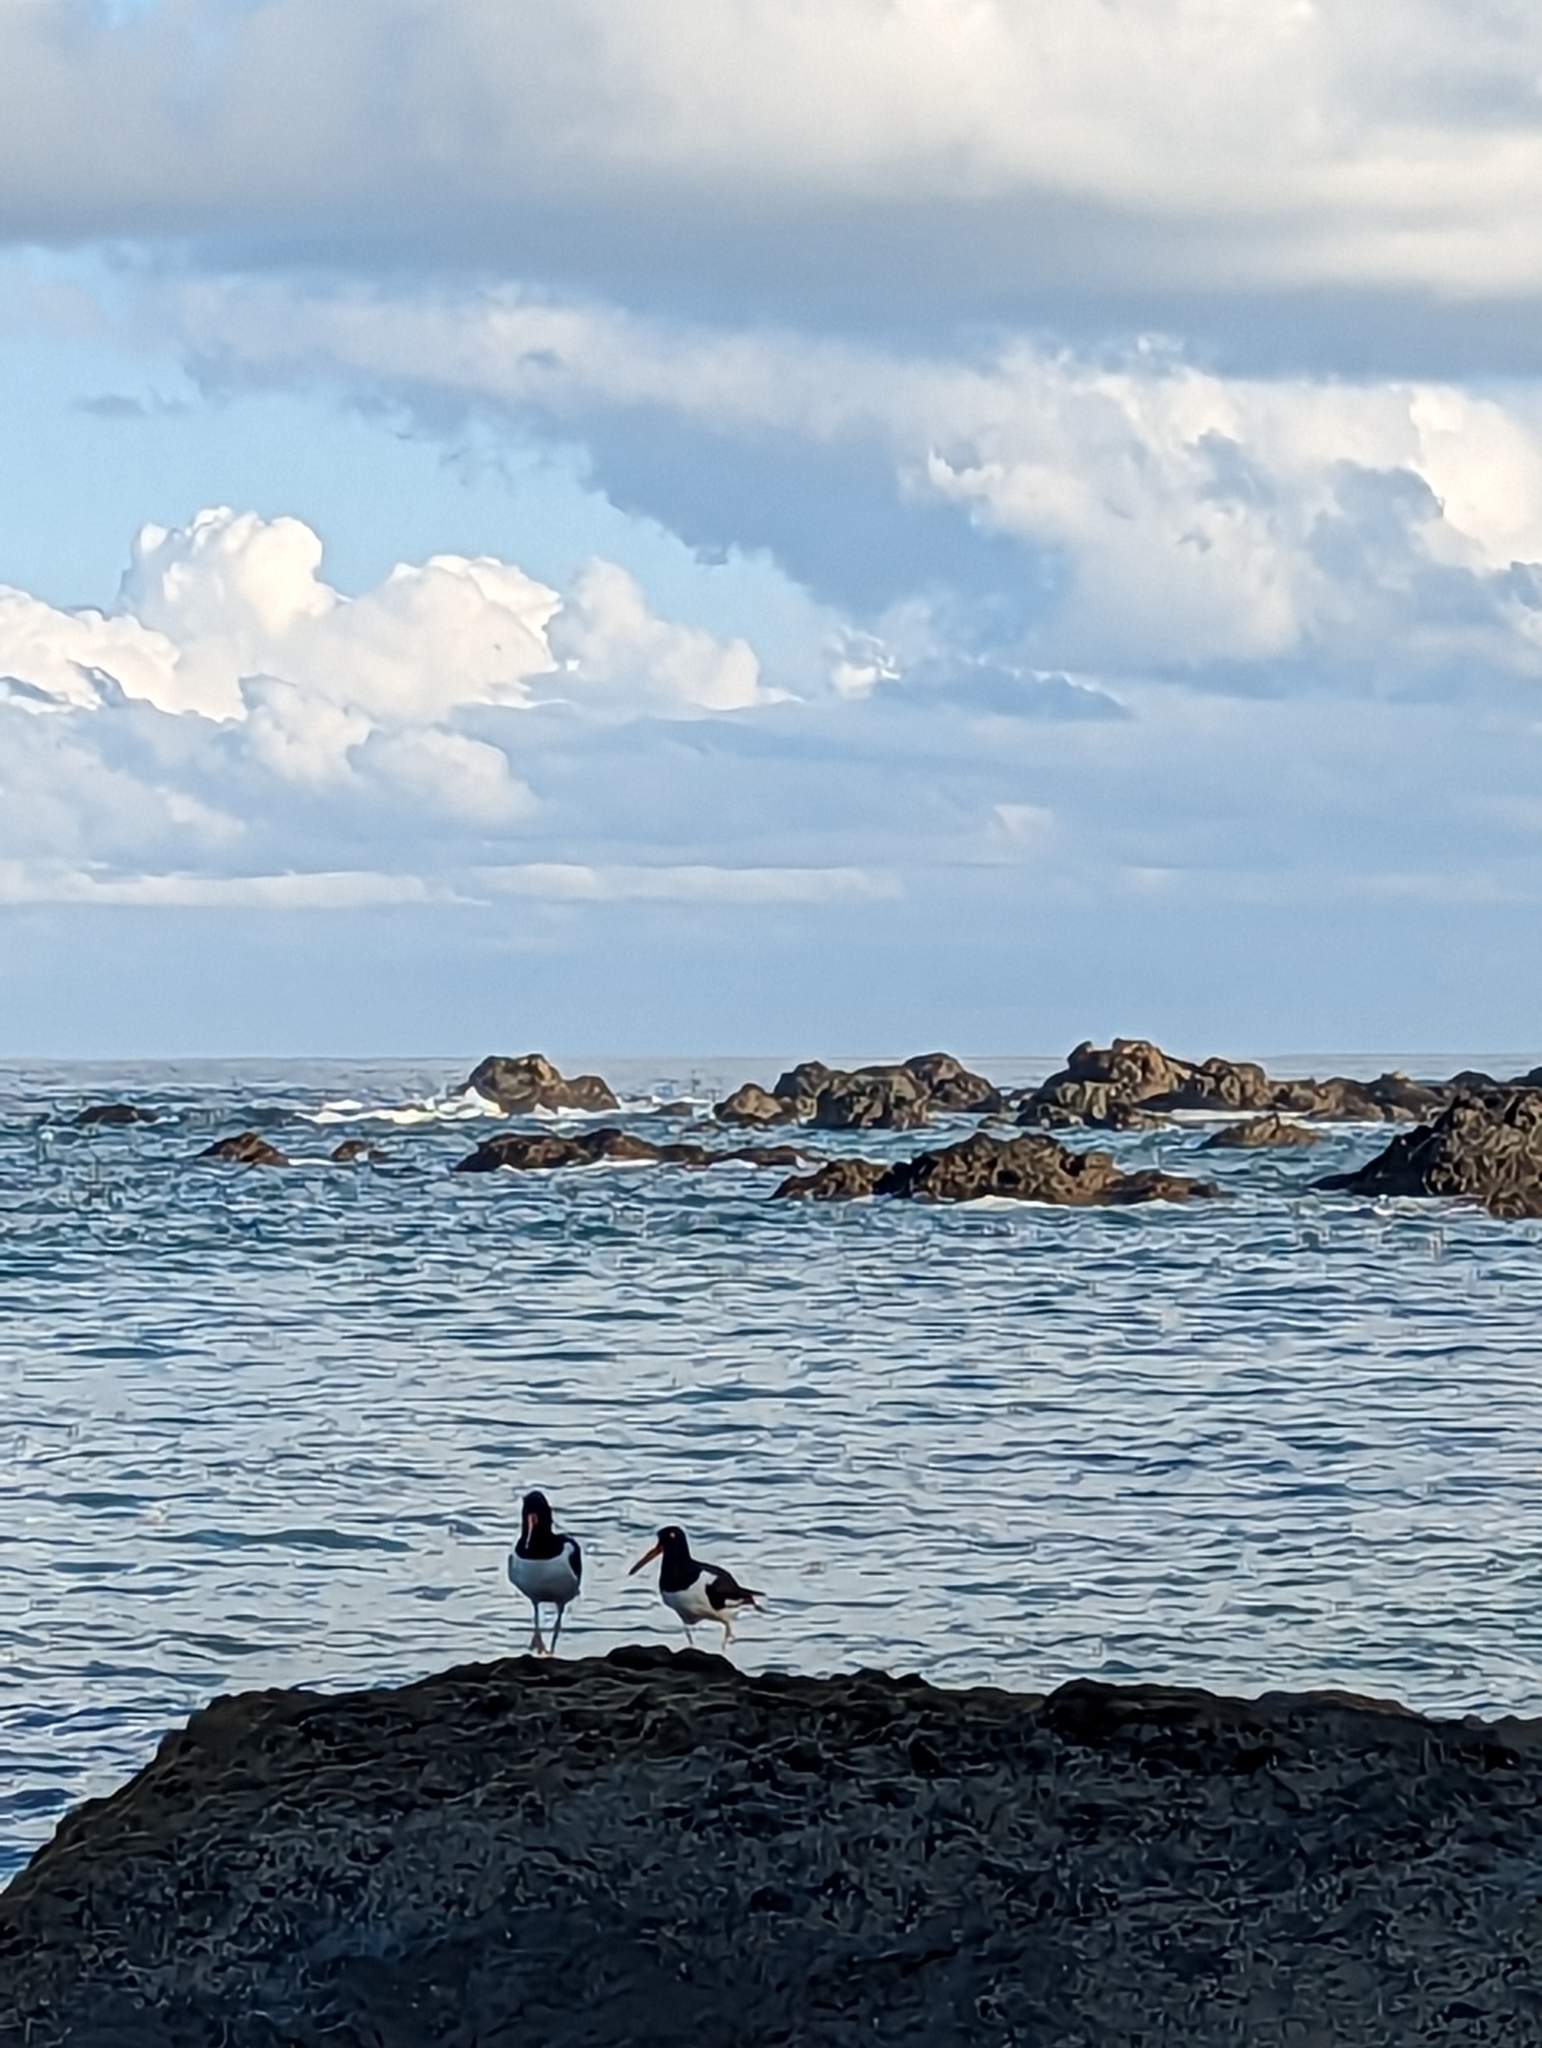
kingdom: Animalia
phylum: Chordata
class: Aves
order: Charadriiformes
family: Haematopodidae
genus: Haematopus
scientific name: Haematopus palliatus
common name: American oystercatcher
